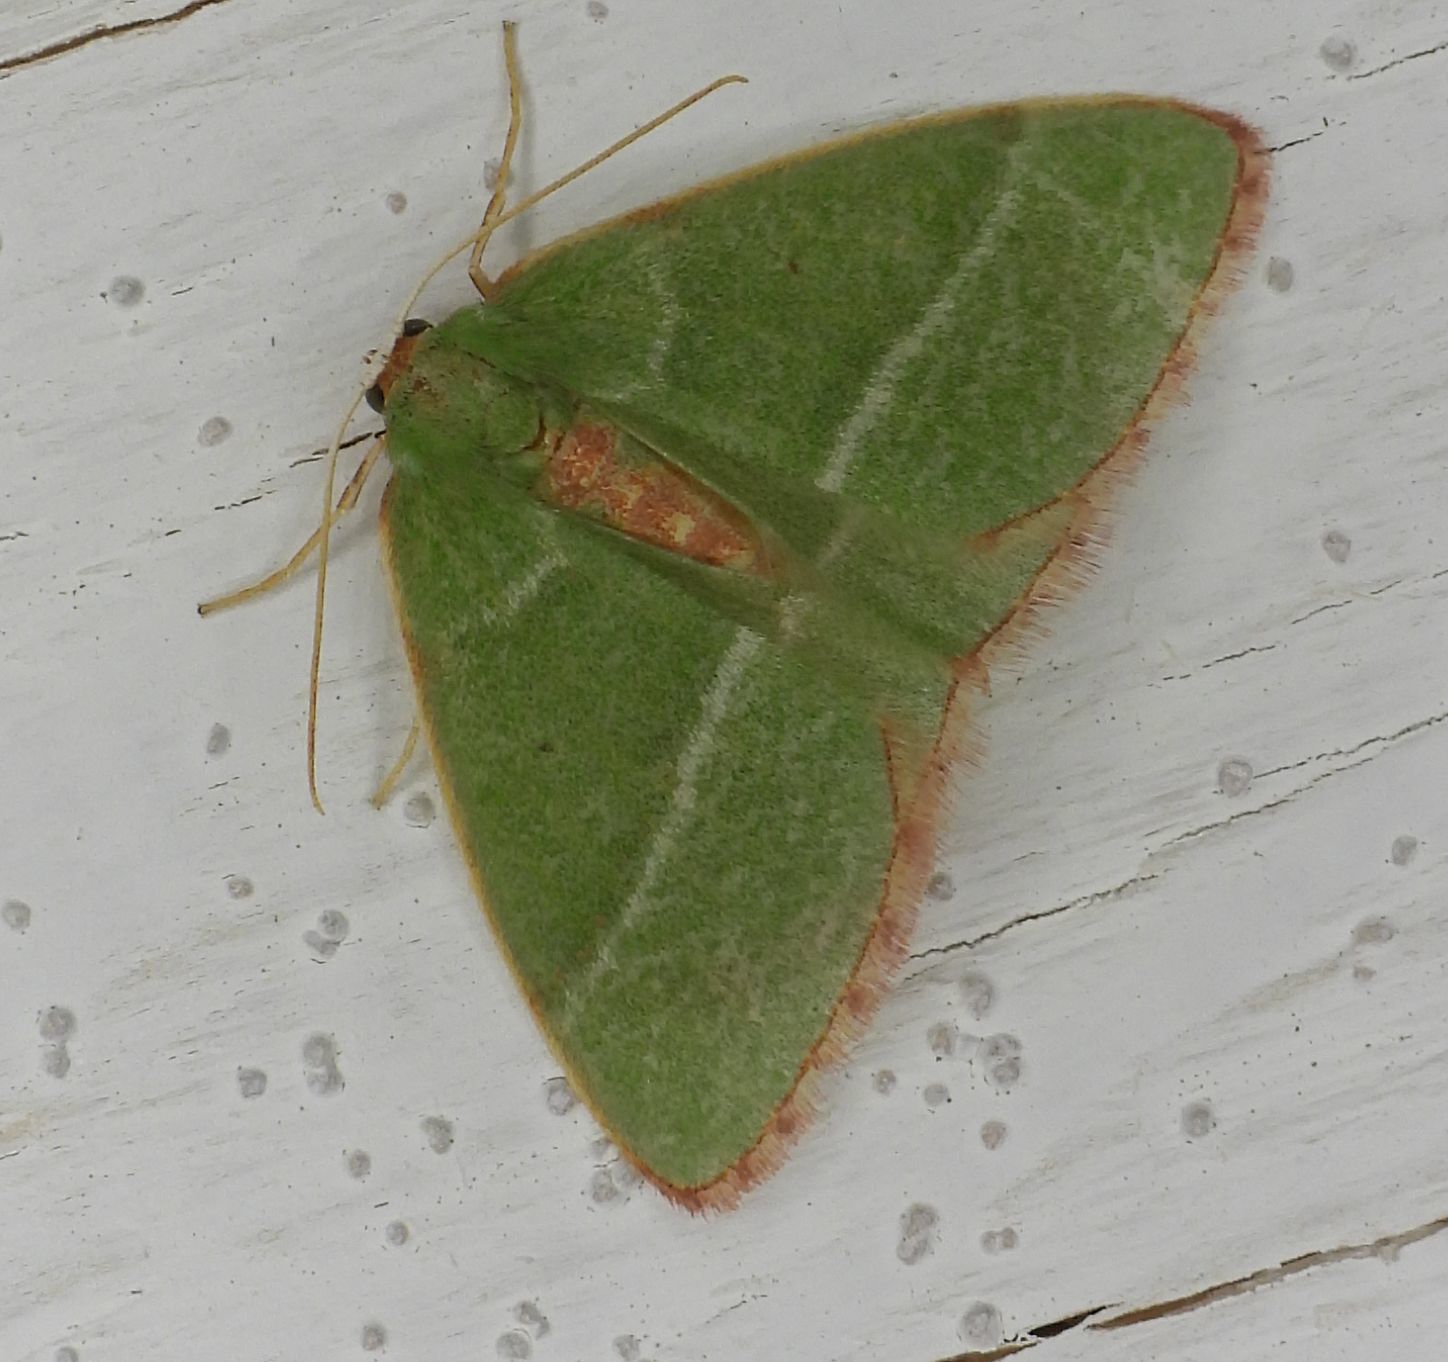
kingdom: Animalia
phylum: Arthropoda
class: Insecta
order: Lepidoptera
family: Geometridae
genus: Nemoria
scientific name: Nemoria bistriaria
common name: Red-fringed emerald
